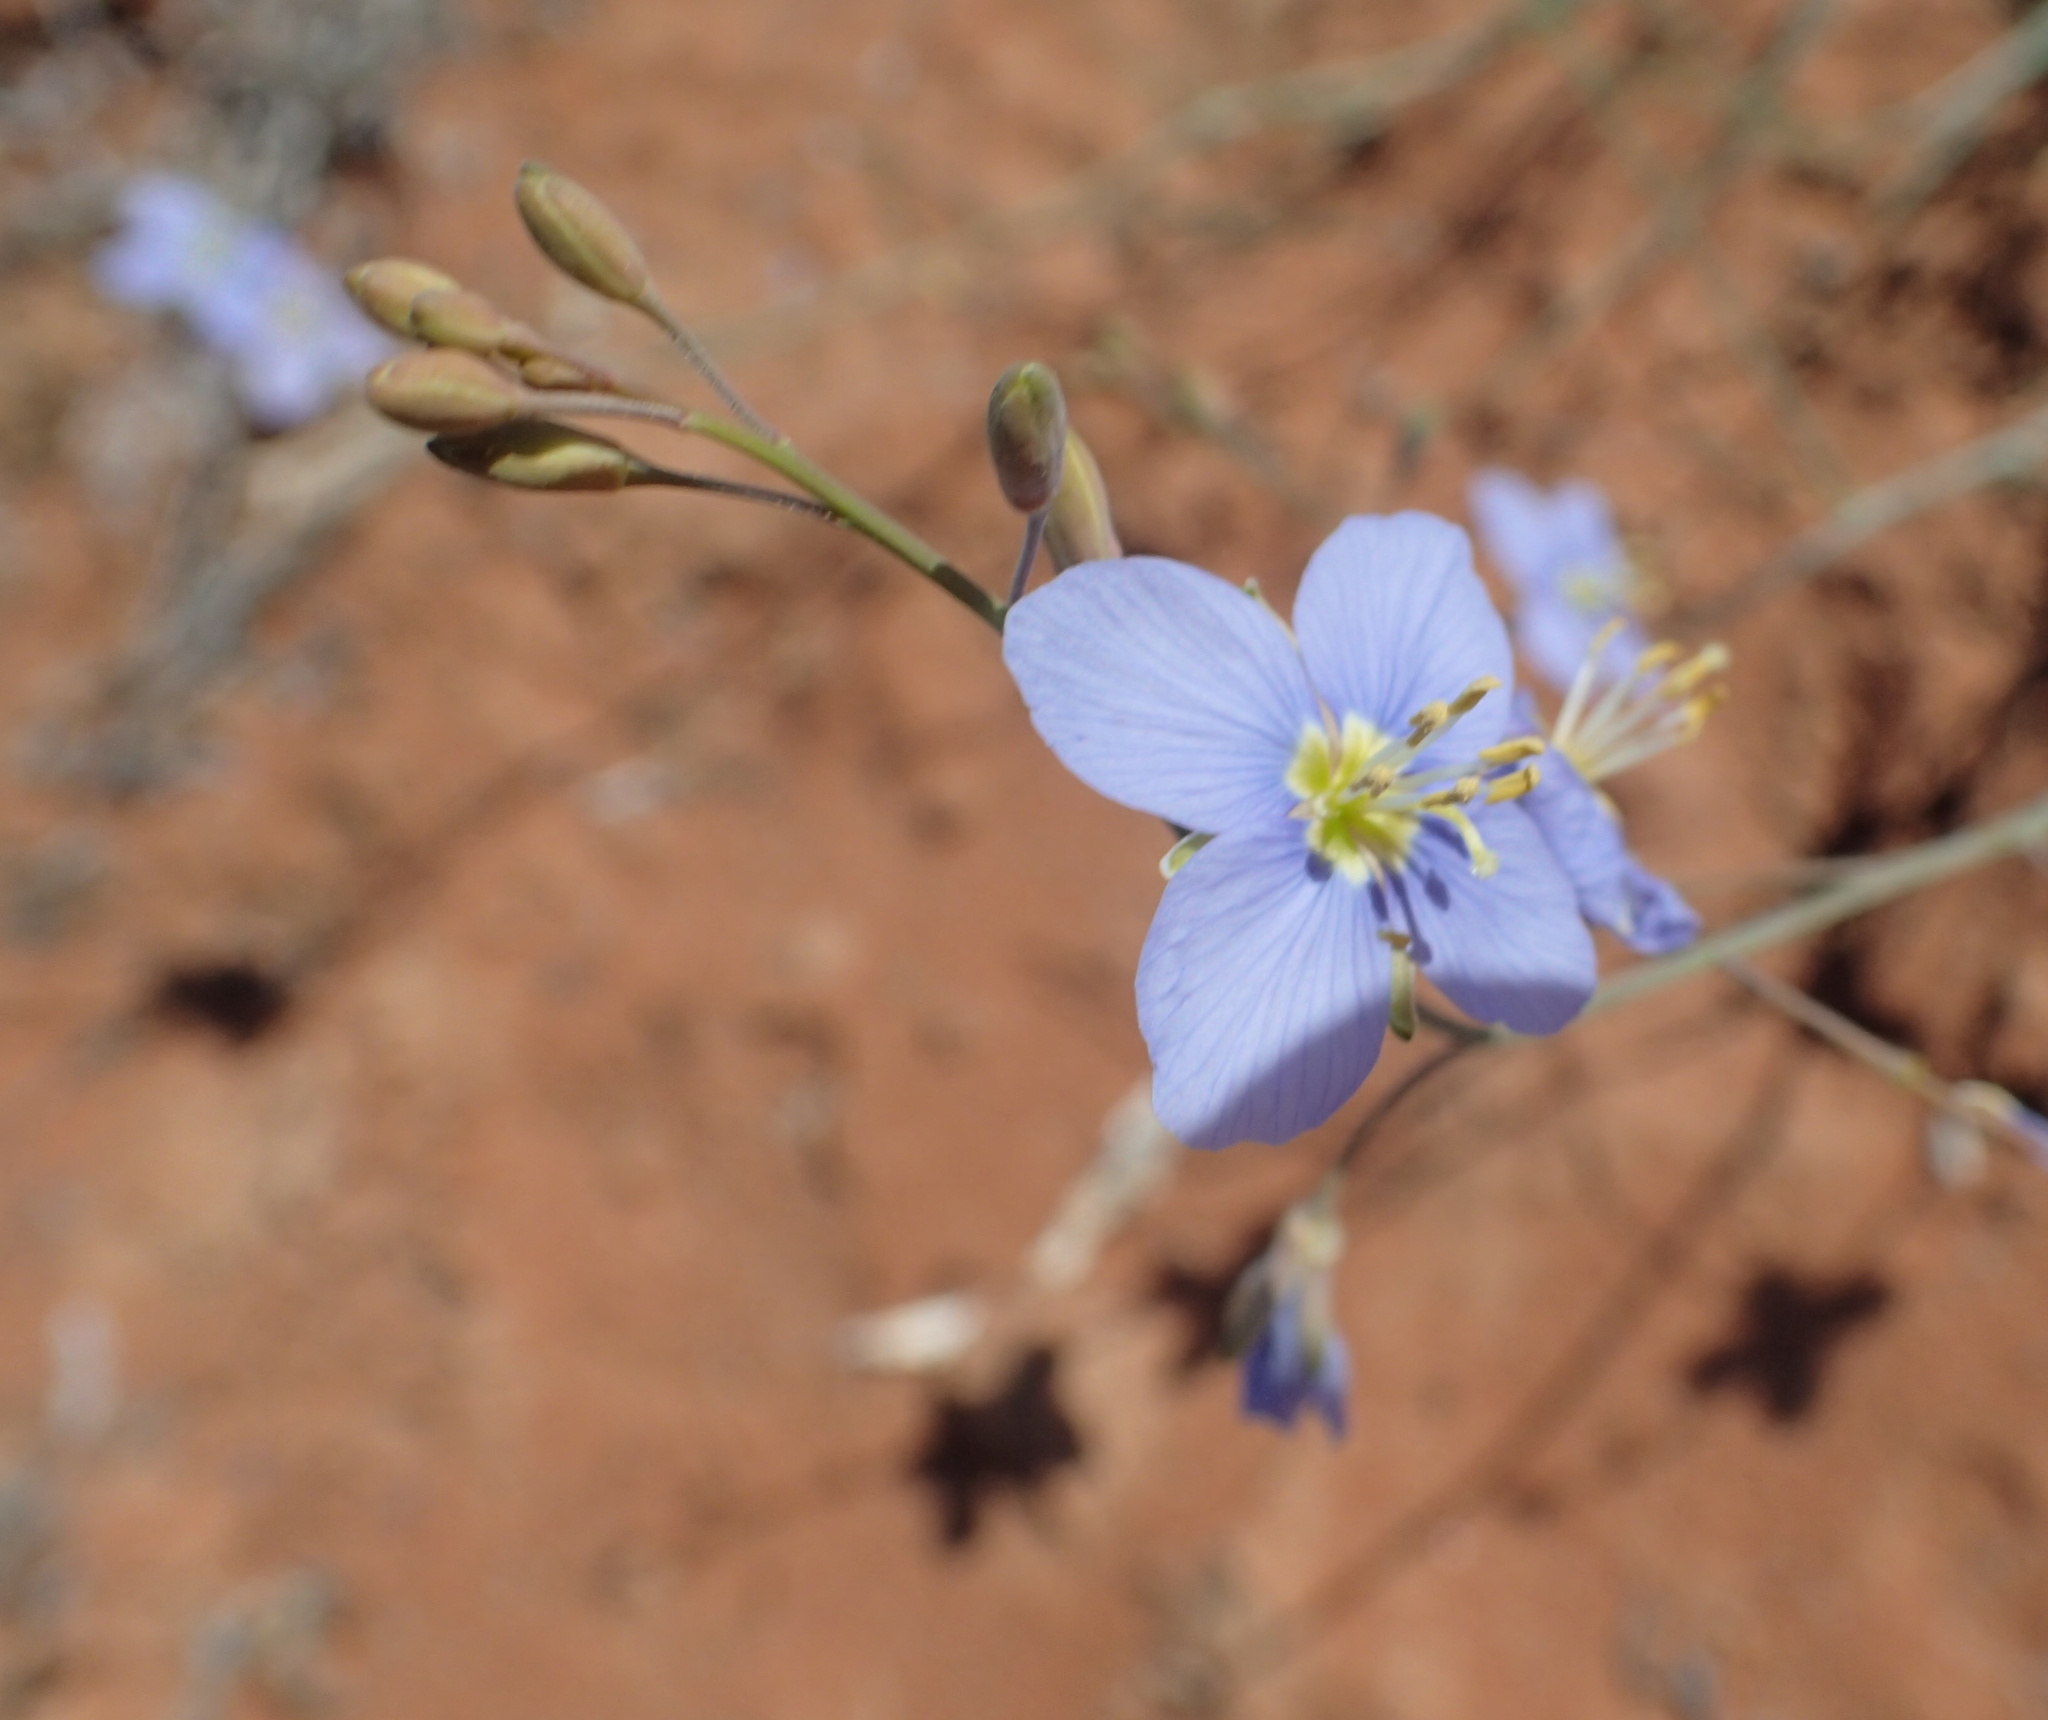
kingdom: Plantae
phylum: Tracheophyta
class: Magnoliopsida
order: Brassicales
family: Brassicaceae
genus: Heliophila
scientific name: Heliophila lactea
